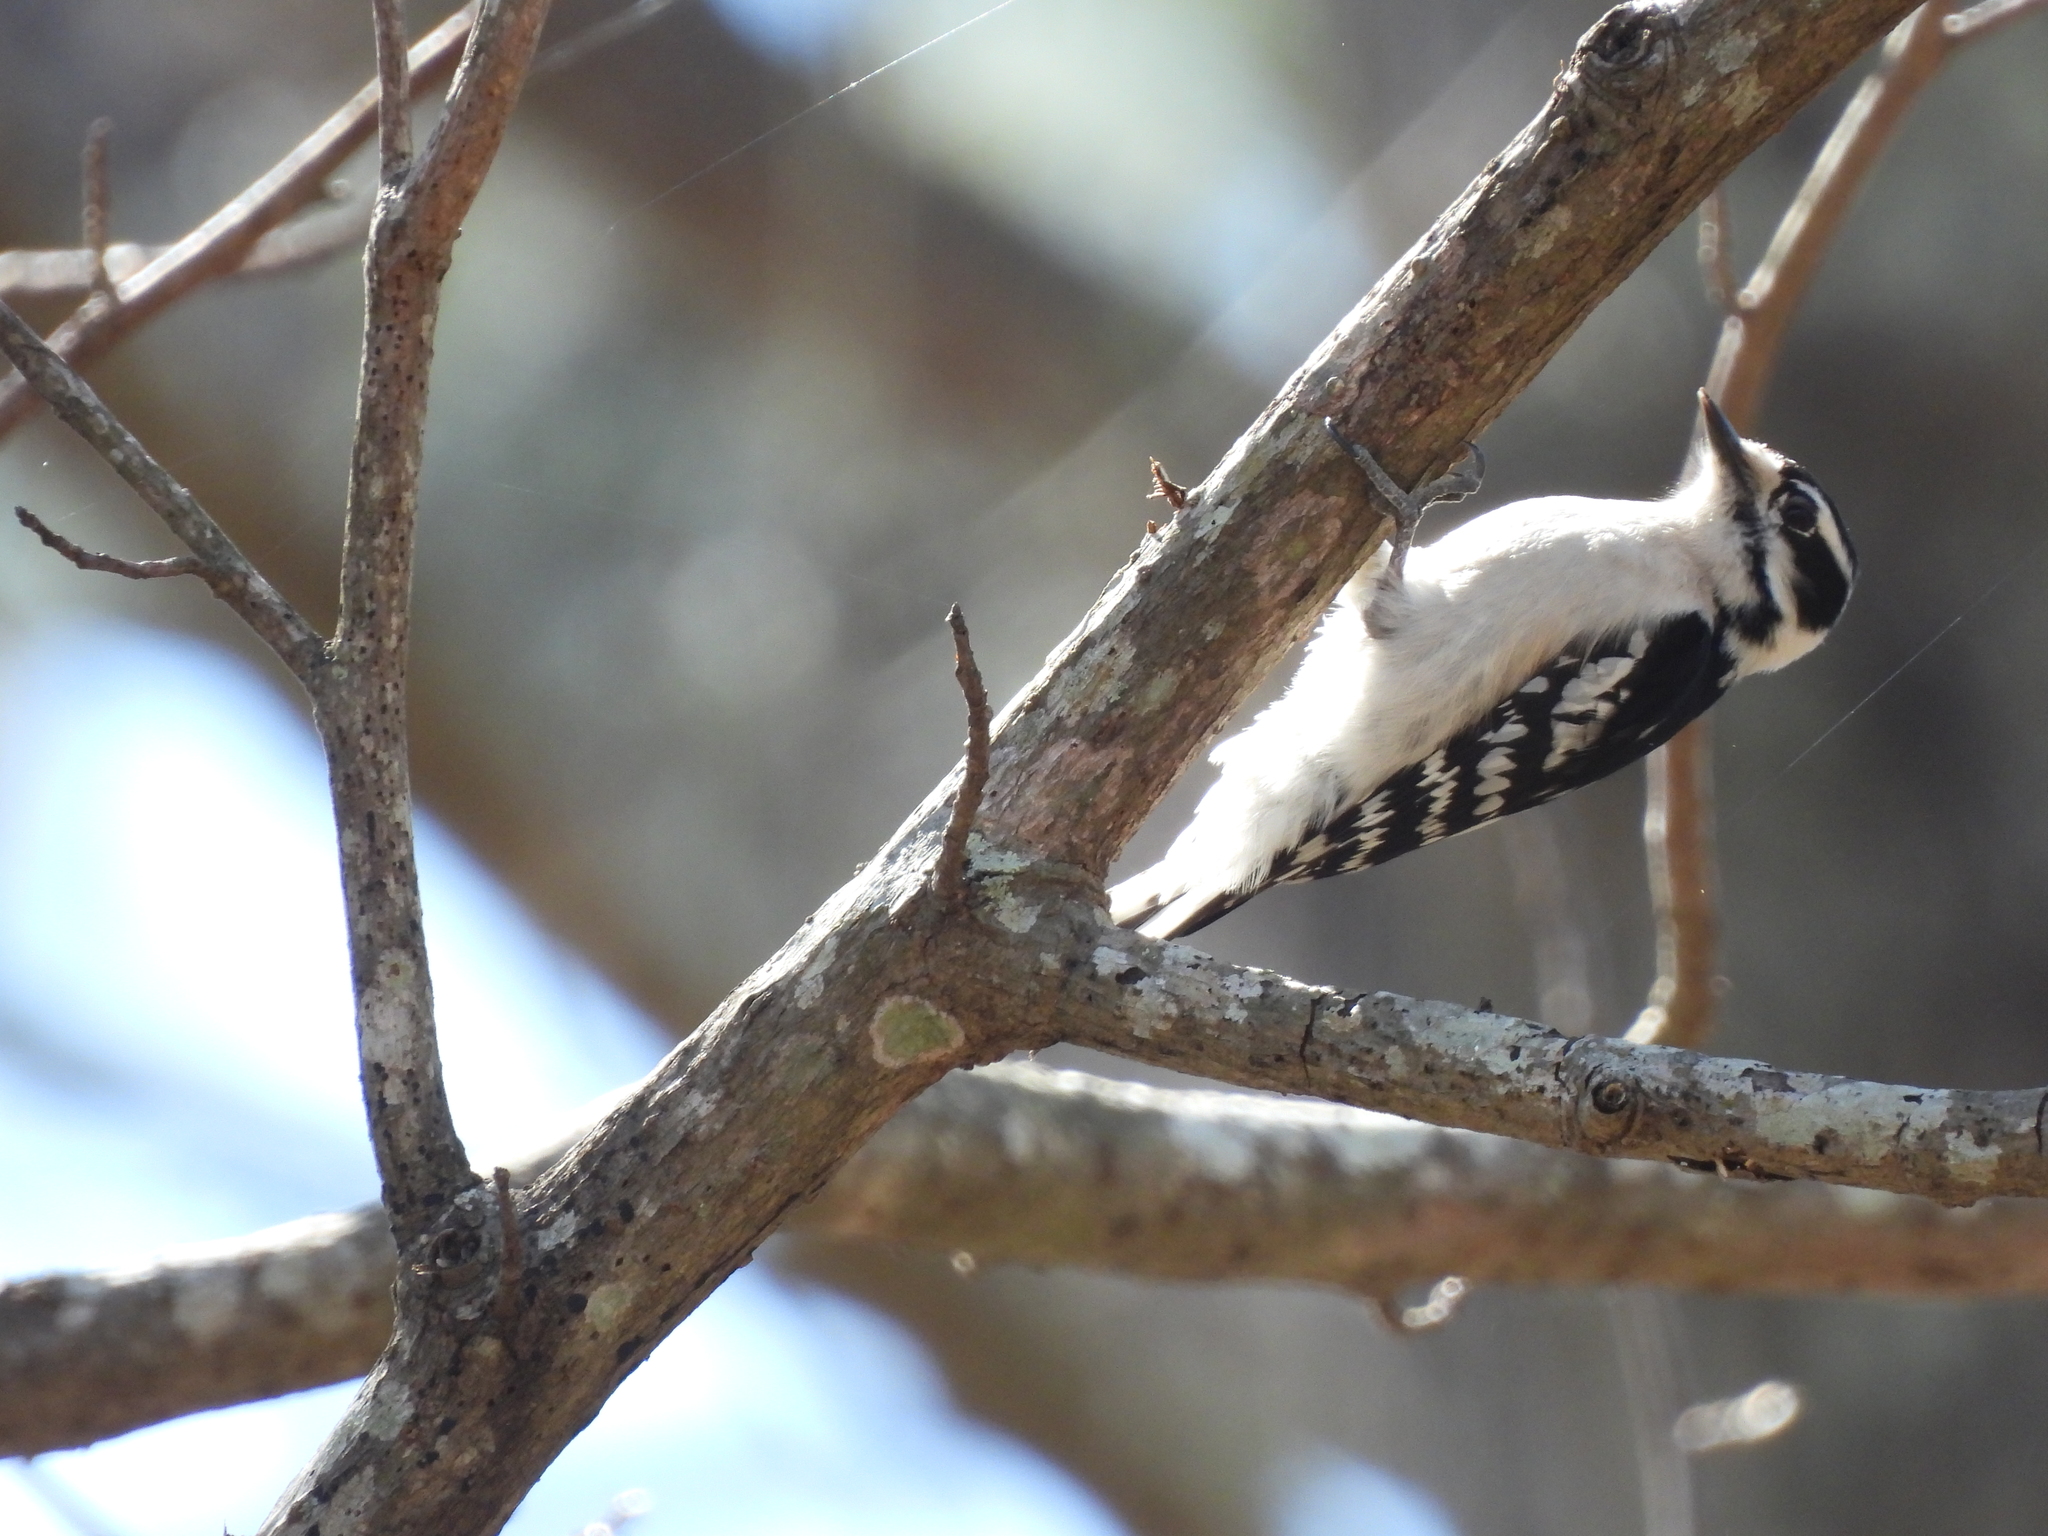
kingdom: Animalia
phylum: Chordata
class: Aves
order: Piciformes
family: Picidae
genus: Dryobates
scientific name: Dryobates pubescens
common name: Downy woodpecker
